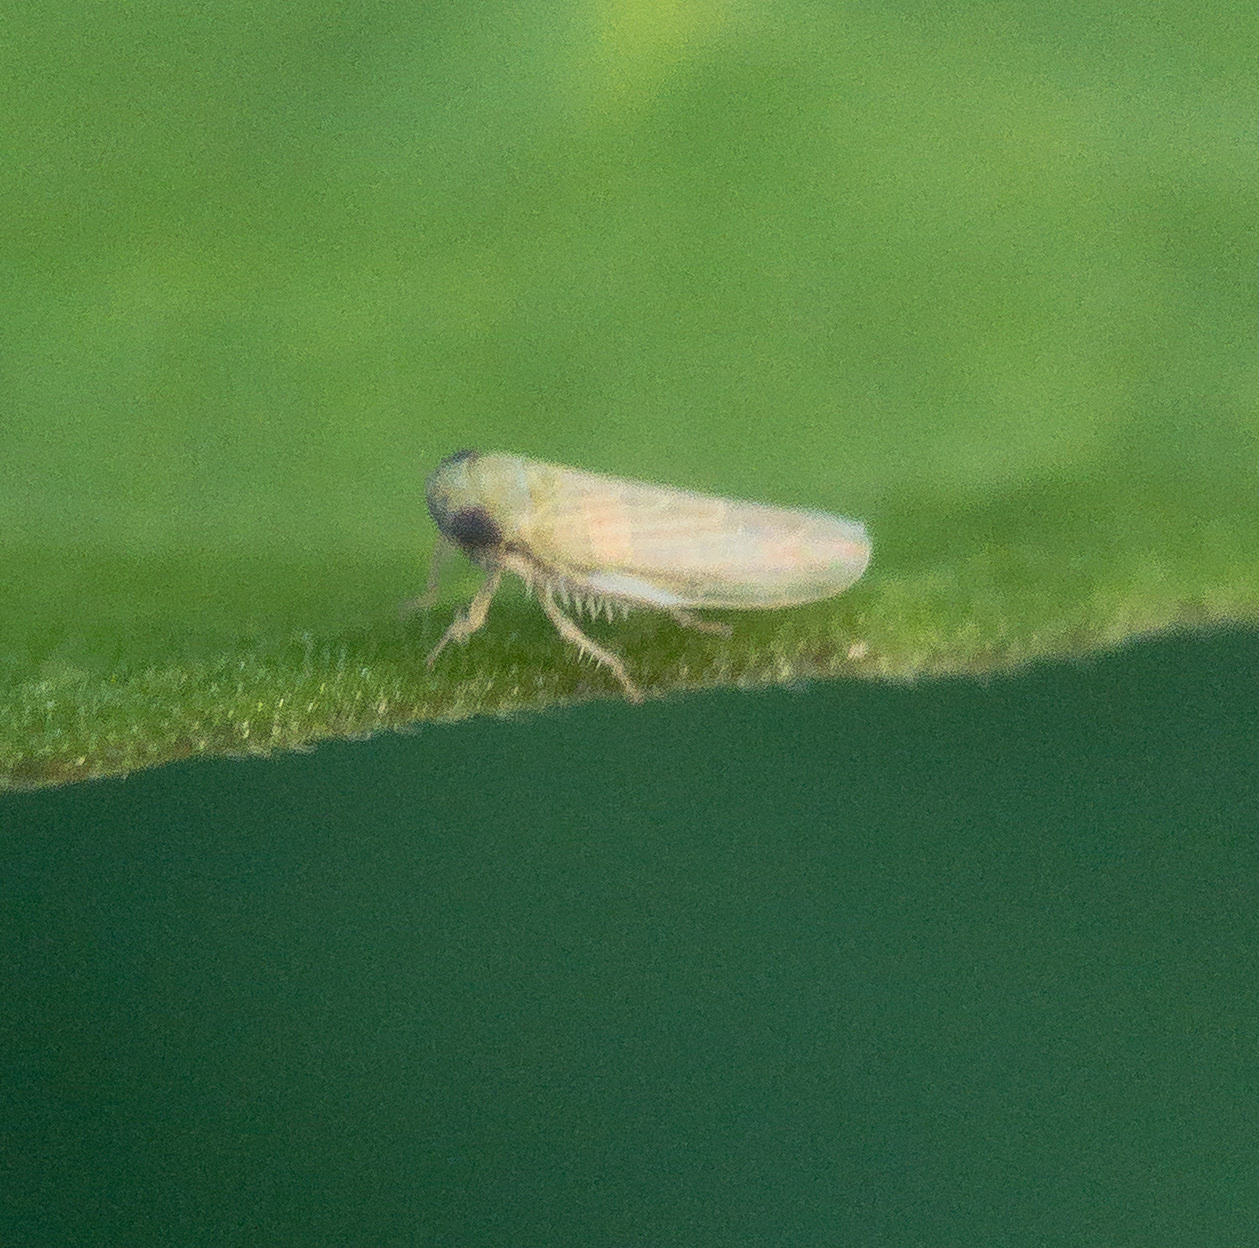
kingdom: Animalia
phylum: Arthropoda
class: Insecta
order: Hemiptera
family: Cicadellidae
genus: Graminella
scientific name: Graminella nigrifrons
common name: Blackfaced leafhopper
